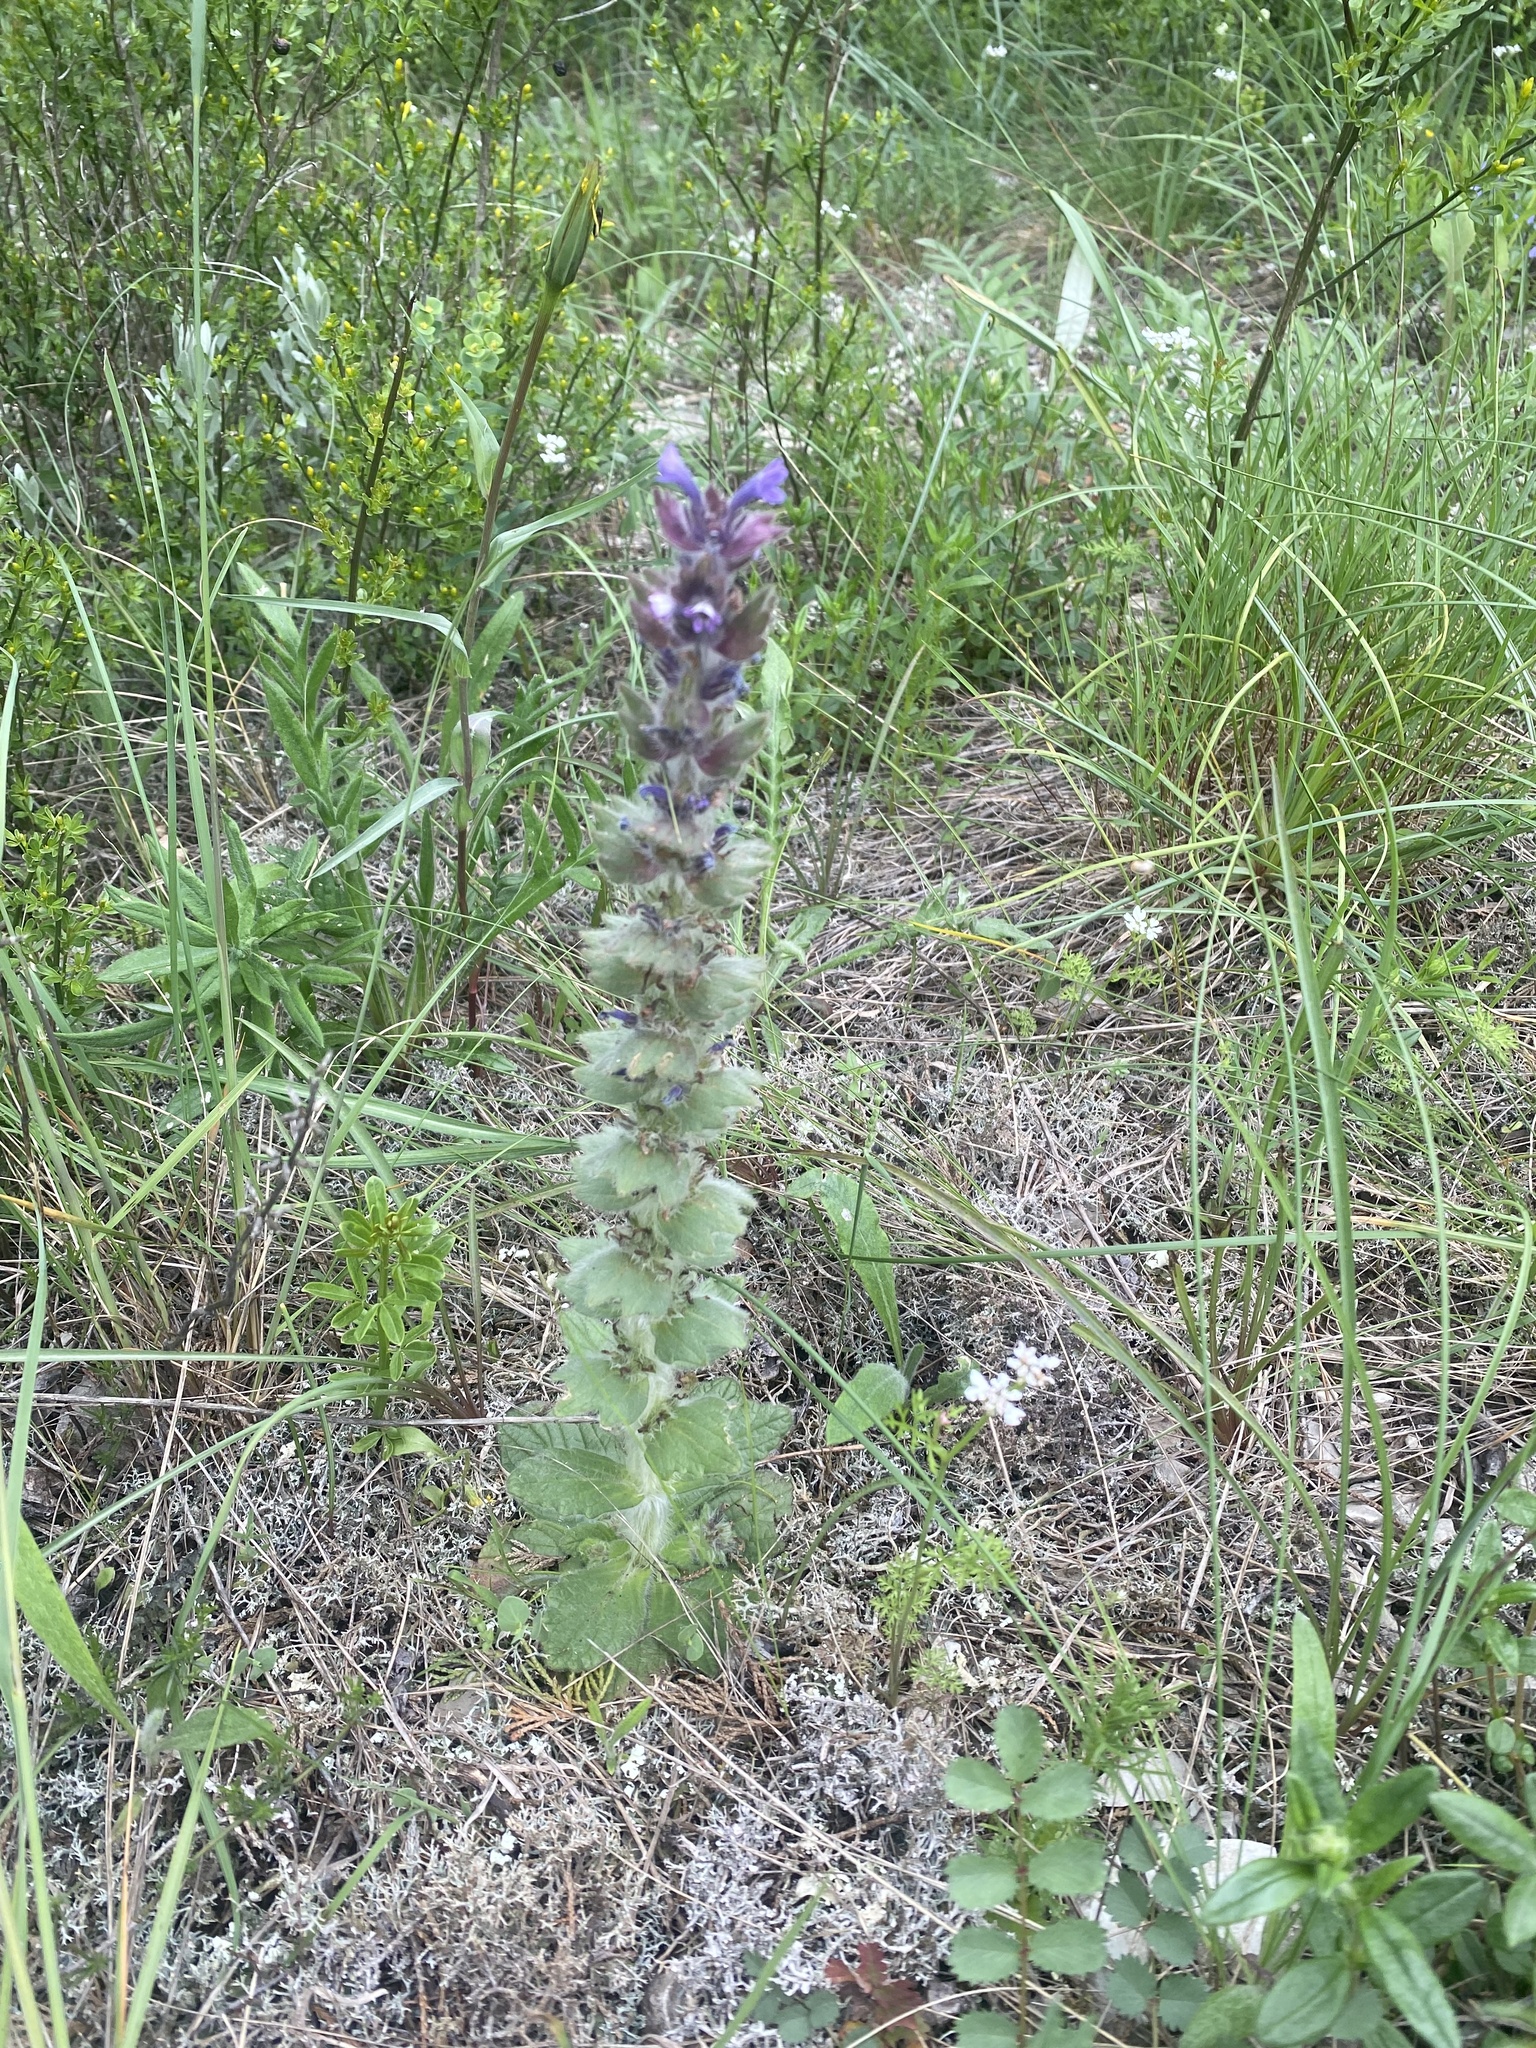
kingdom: Plantae
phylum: Tracheophyta
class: Magnoliopsida
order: Lamiales
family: Lamiaceae
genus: Ajuga
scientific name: Ajuga orientalis
